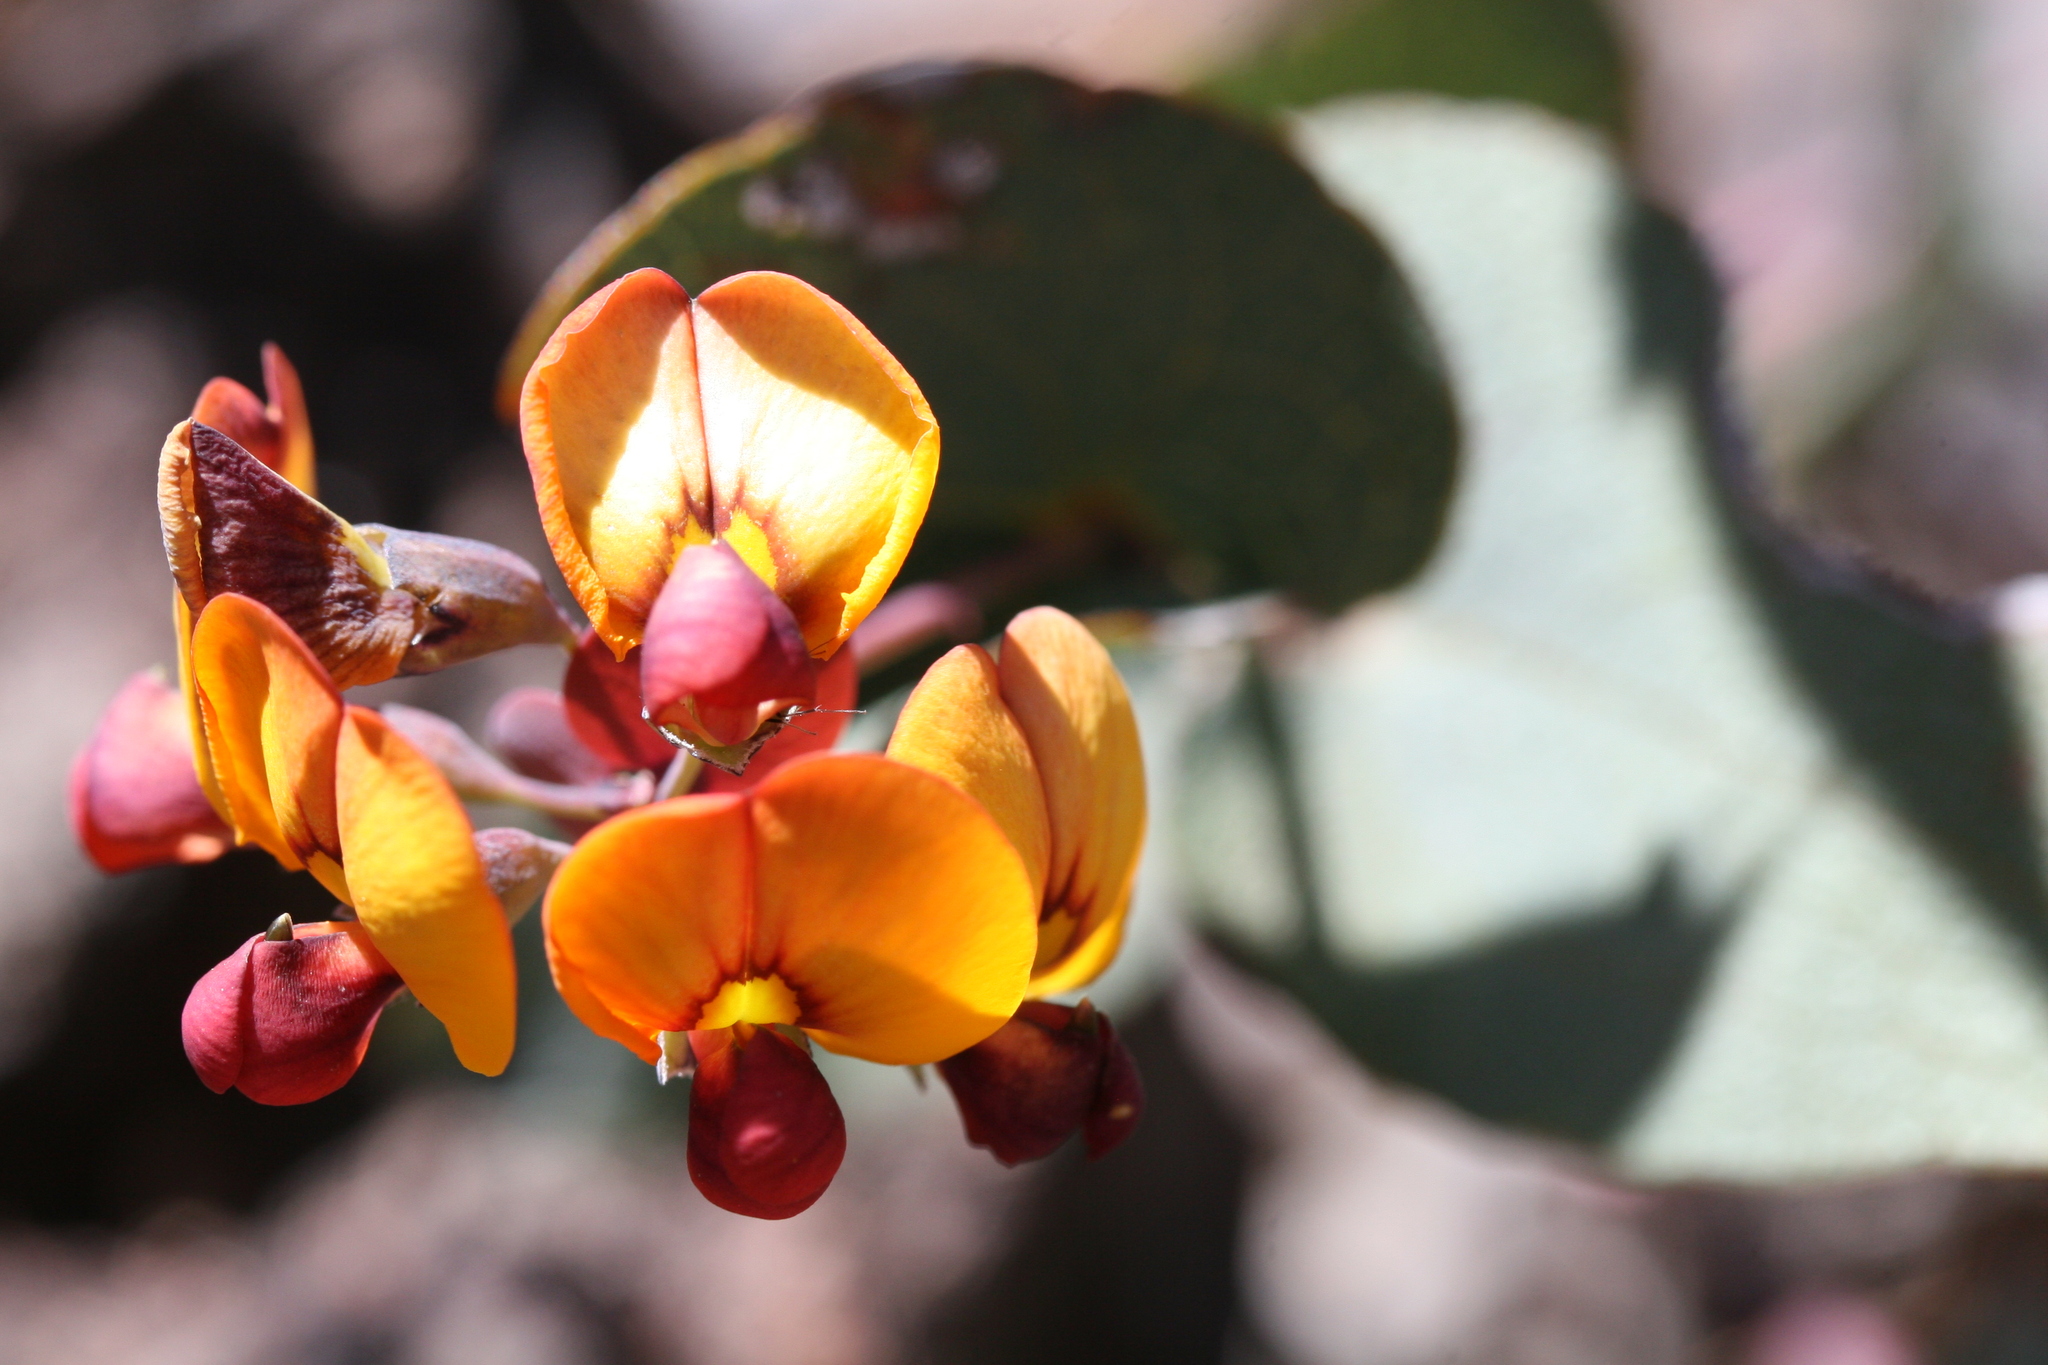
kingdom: Plantae
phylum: Tracheophyta
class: Magnoliopsida
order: Fabales
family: Fabaceae
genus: Daviesia
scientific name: Daviesia cordata
